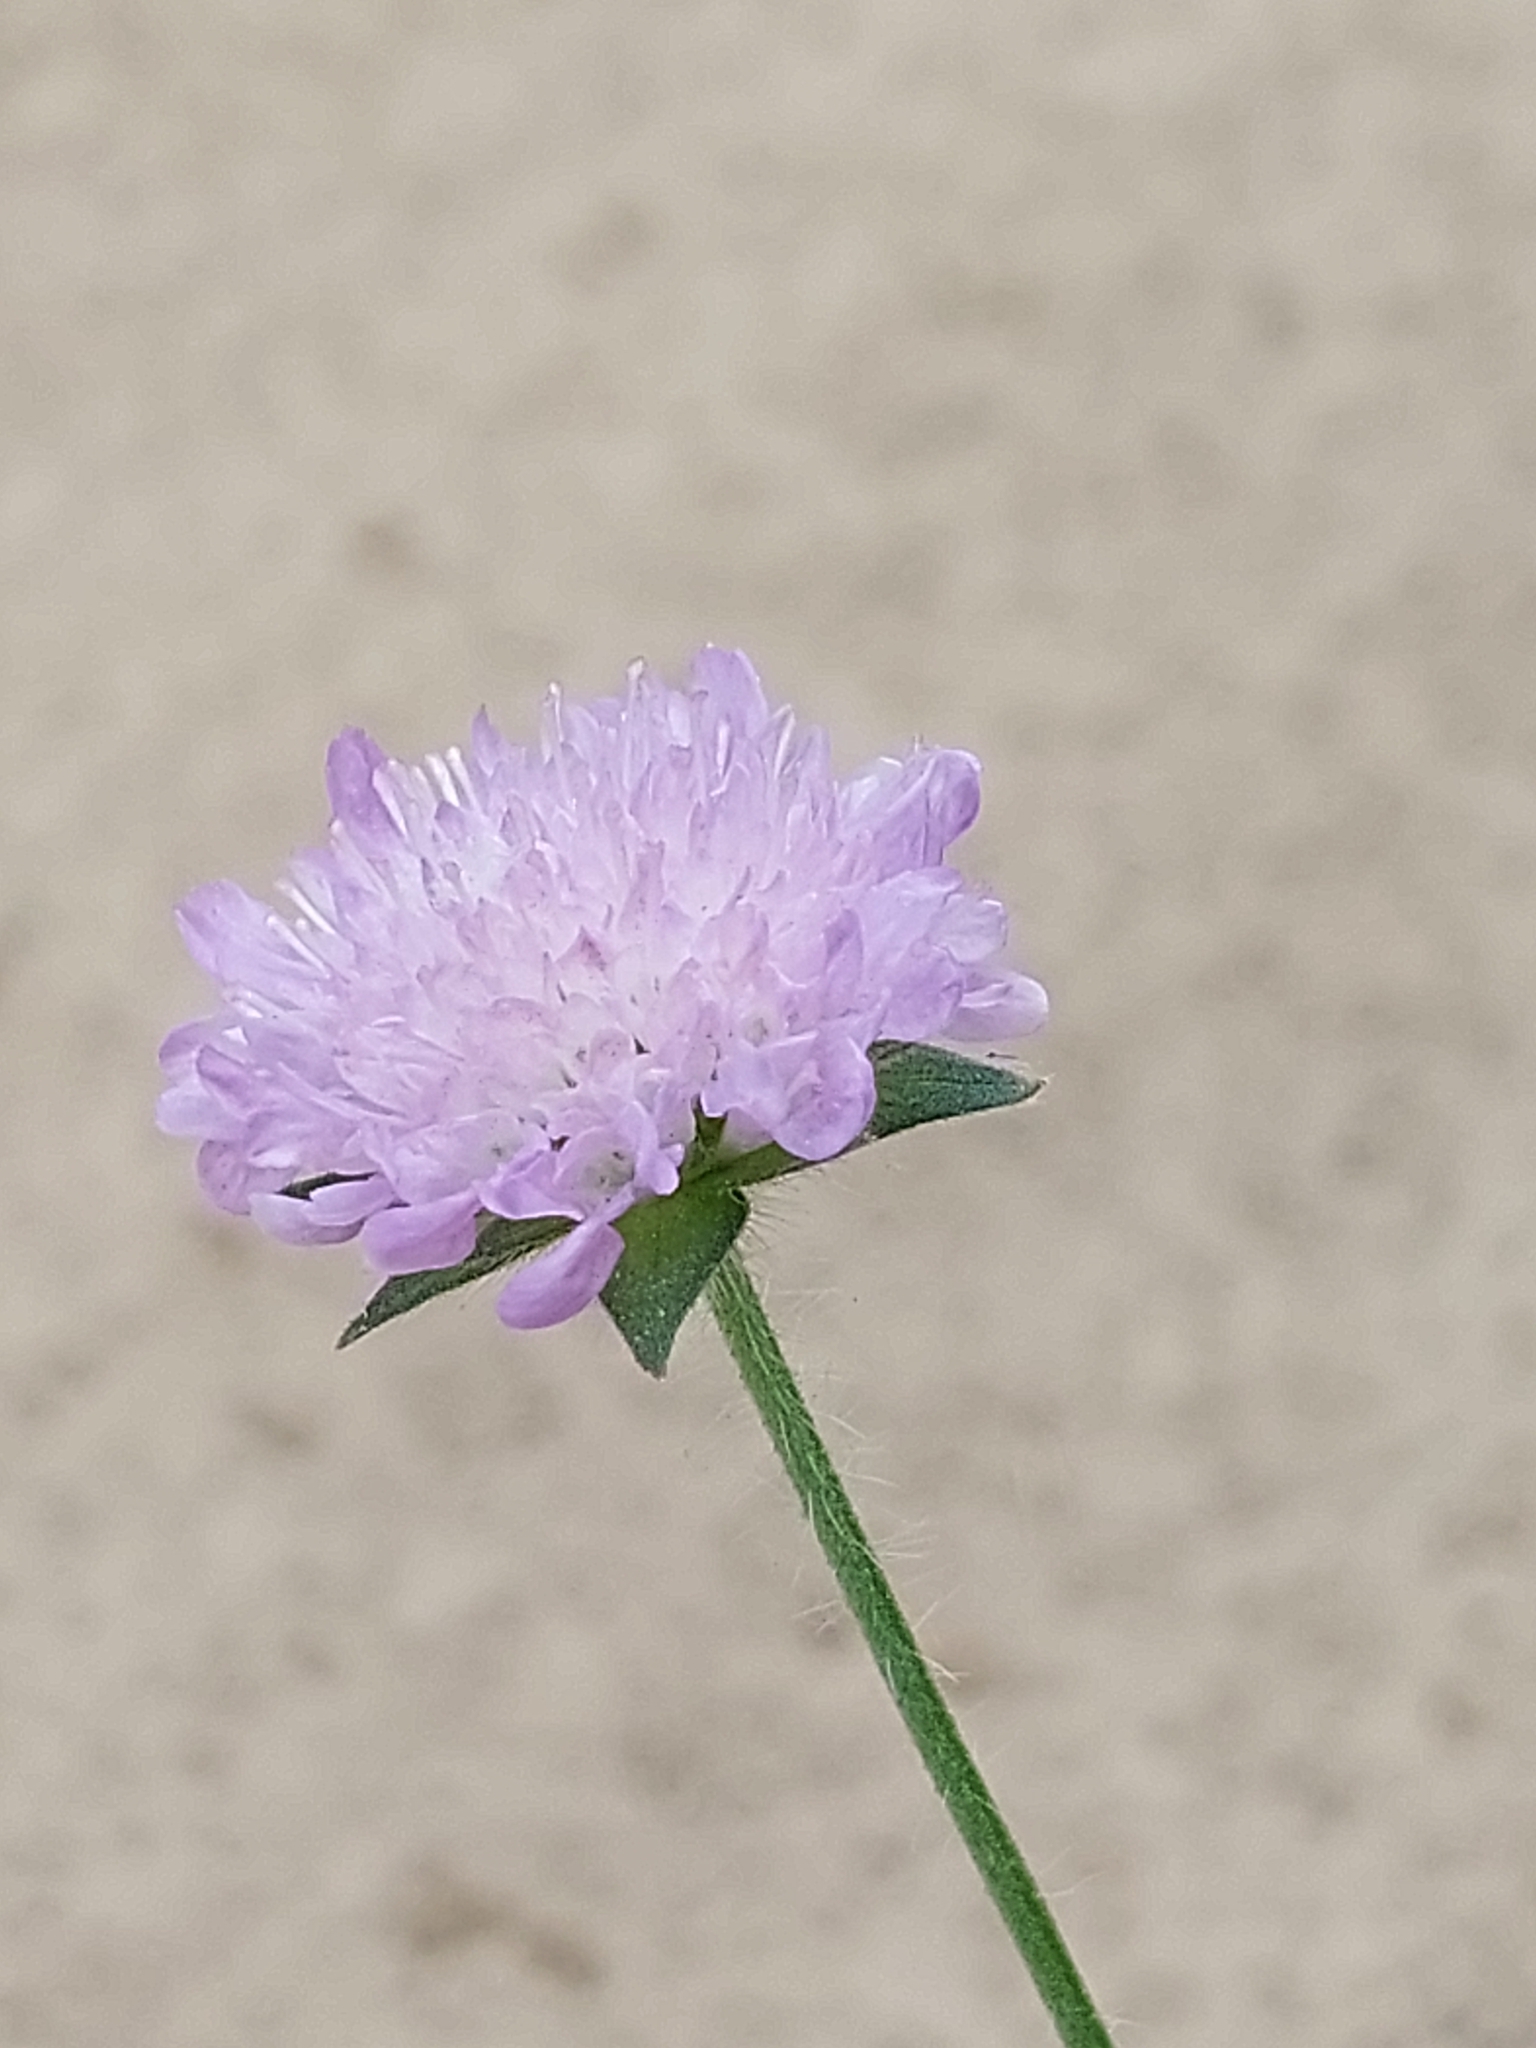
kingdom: Plantae
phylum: Tracheophyta
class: Magnoliopsida
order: Dipsacales
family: Caprifoliaceae
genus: Knautia
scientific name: Knautia arvensis
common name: Field scabiosa
